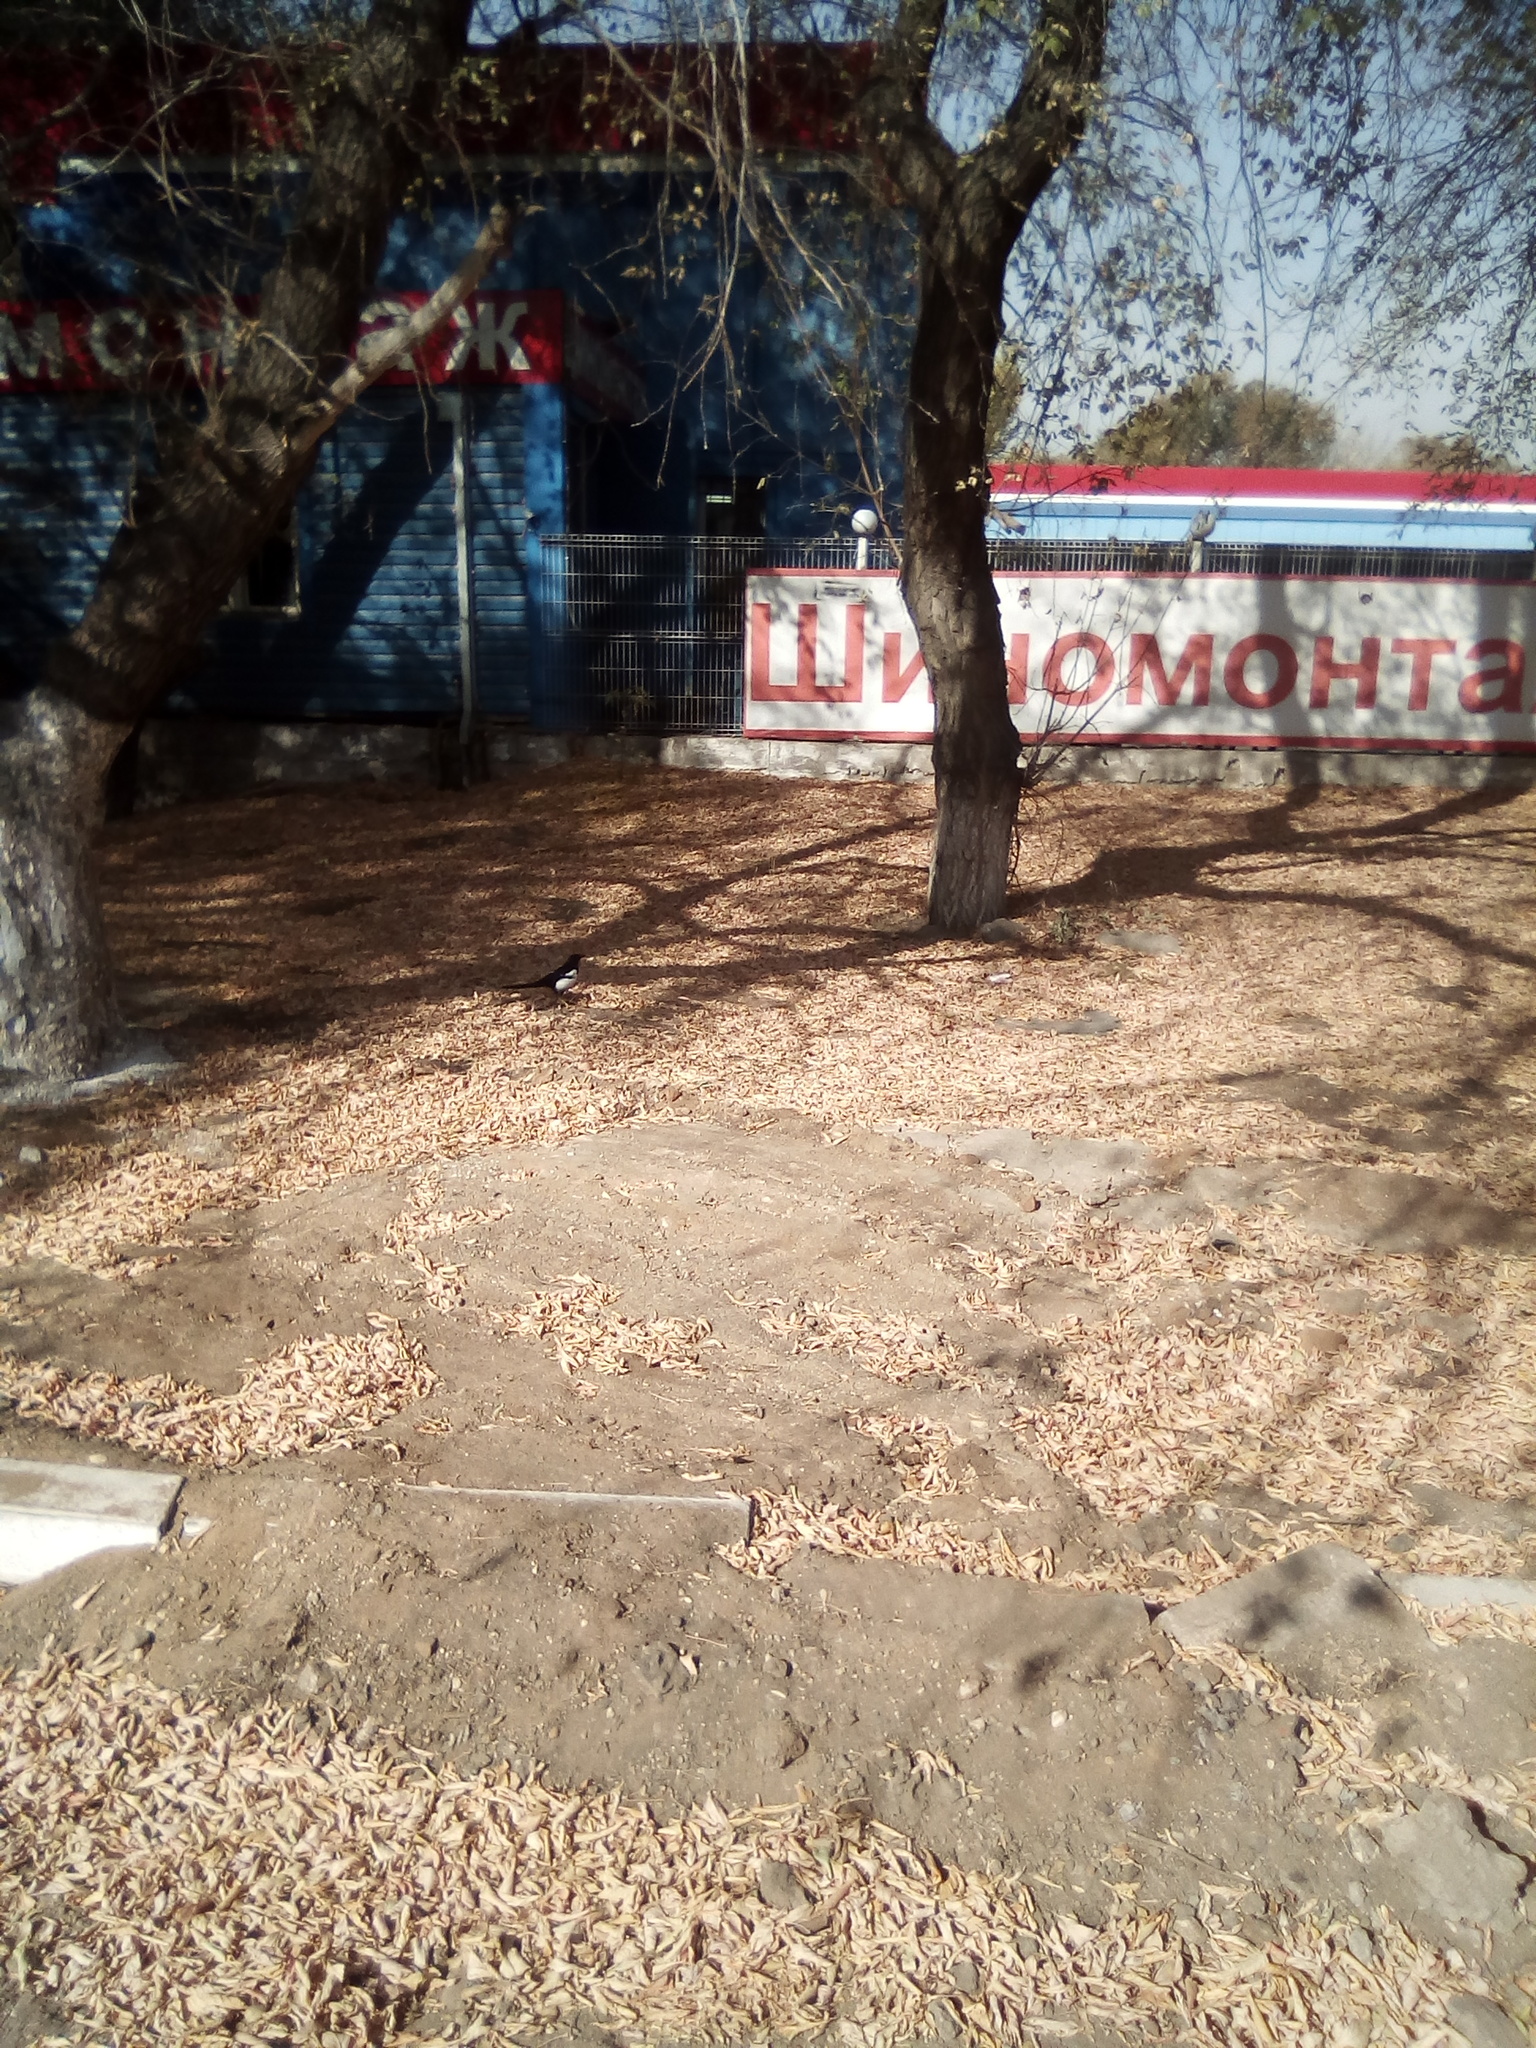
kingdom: Animalia
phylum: Chordata
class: Aves
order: Passeriformes
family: Corvidae
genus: Pica
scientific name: Pica pica
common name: Eurasian magpie
